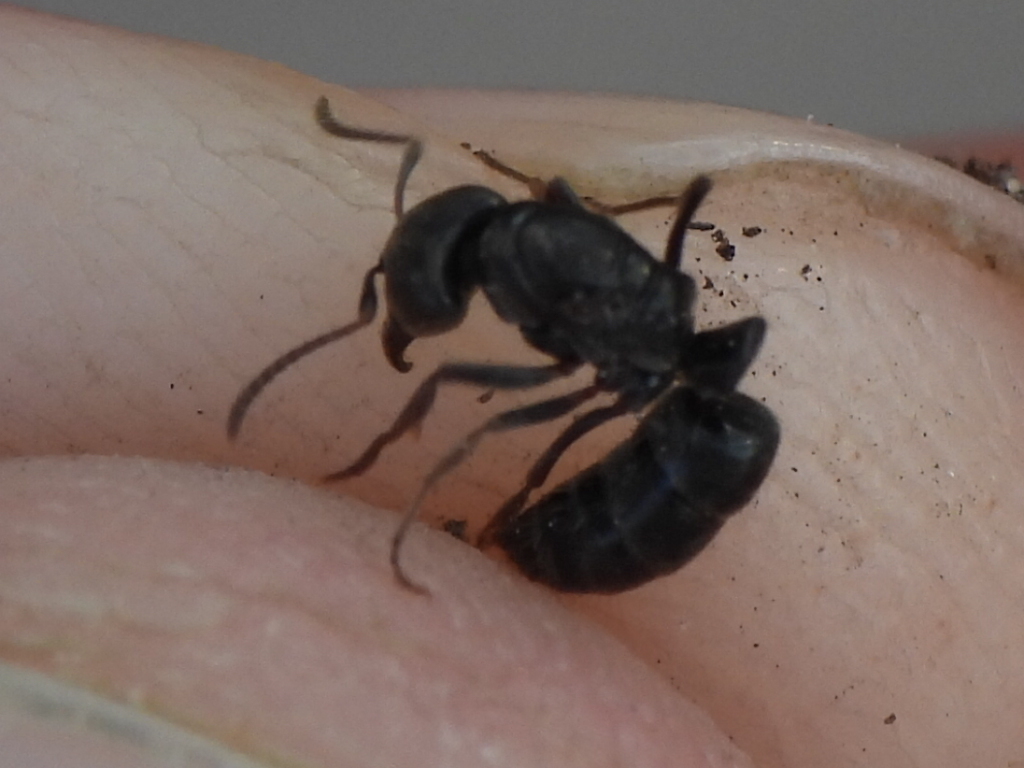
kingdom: Animalia
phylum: Arthropoda
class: Insecta
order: Hymenoptera
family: Formicidae
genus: Pachycondyla
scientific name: Pachycondyla sennaarensis
